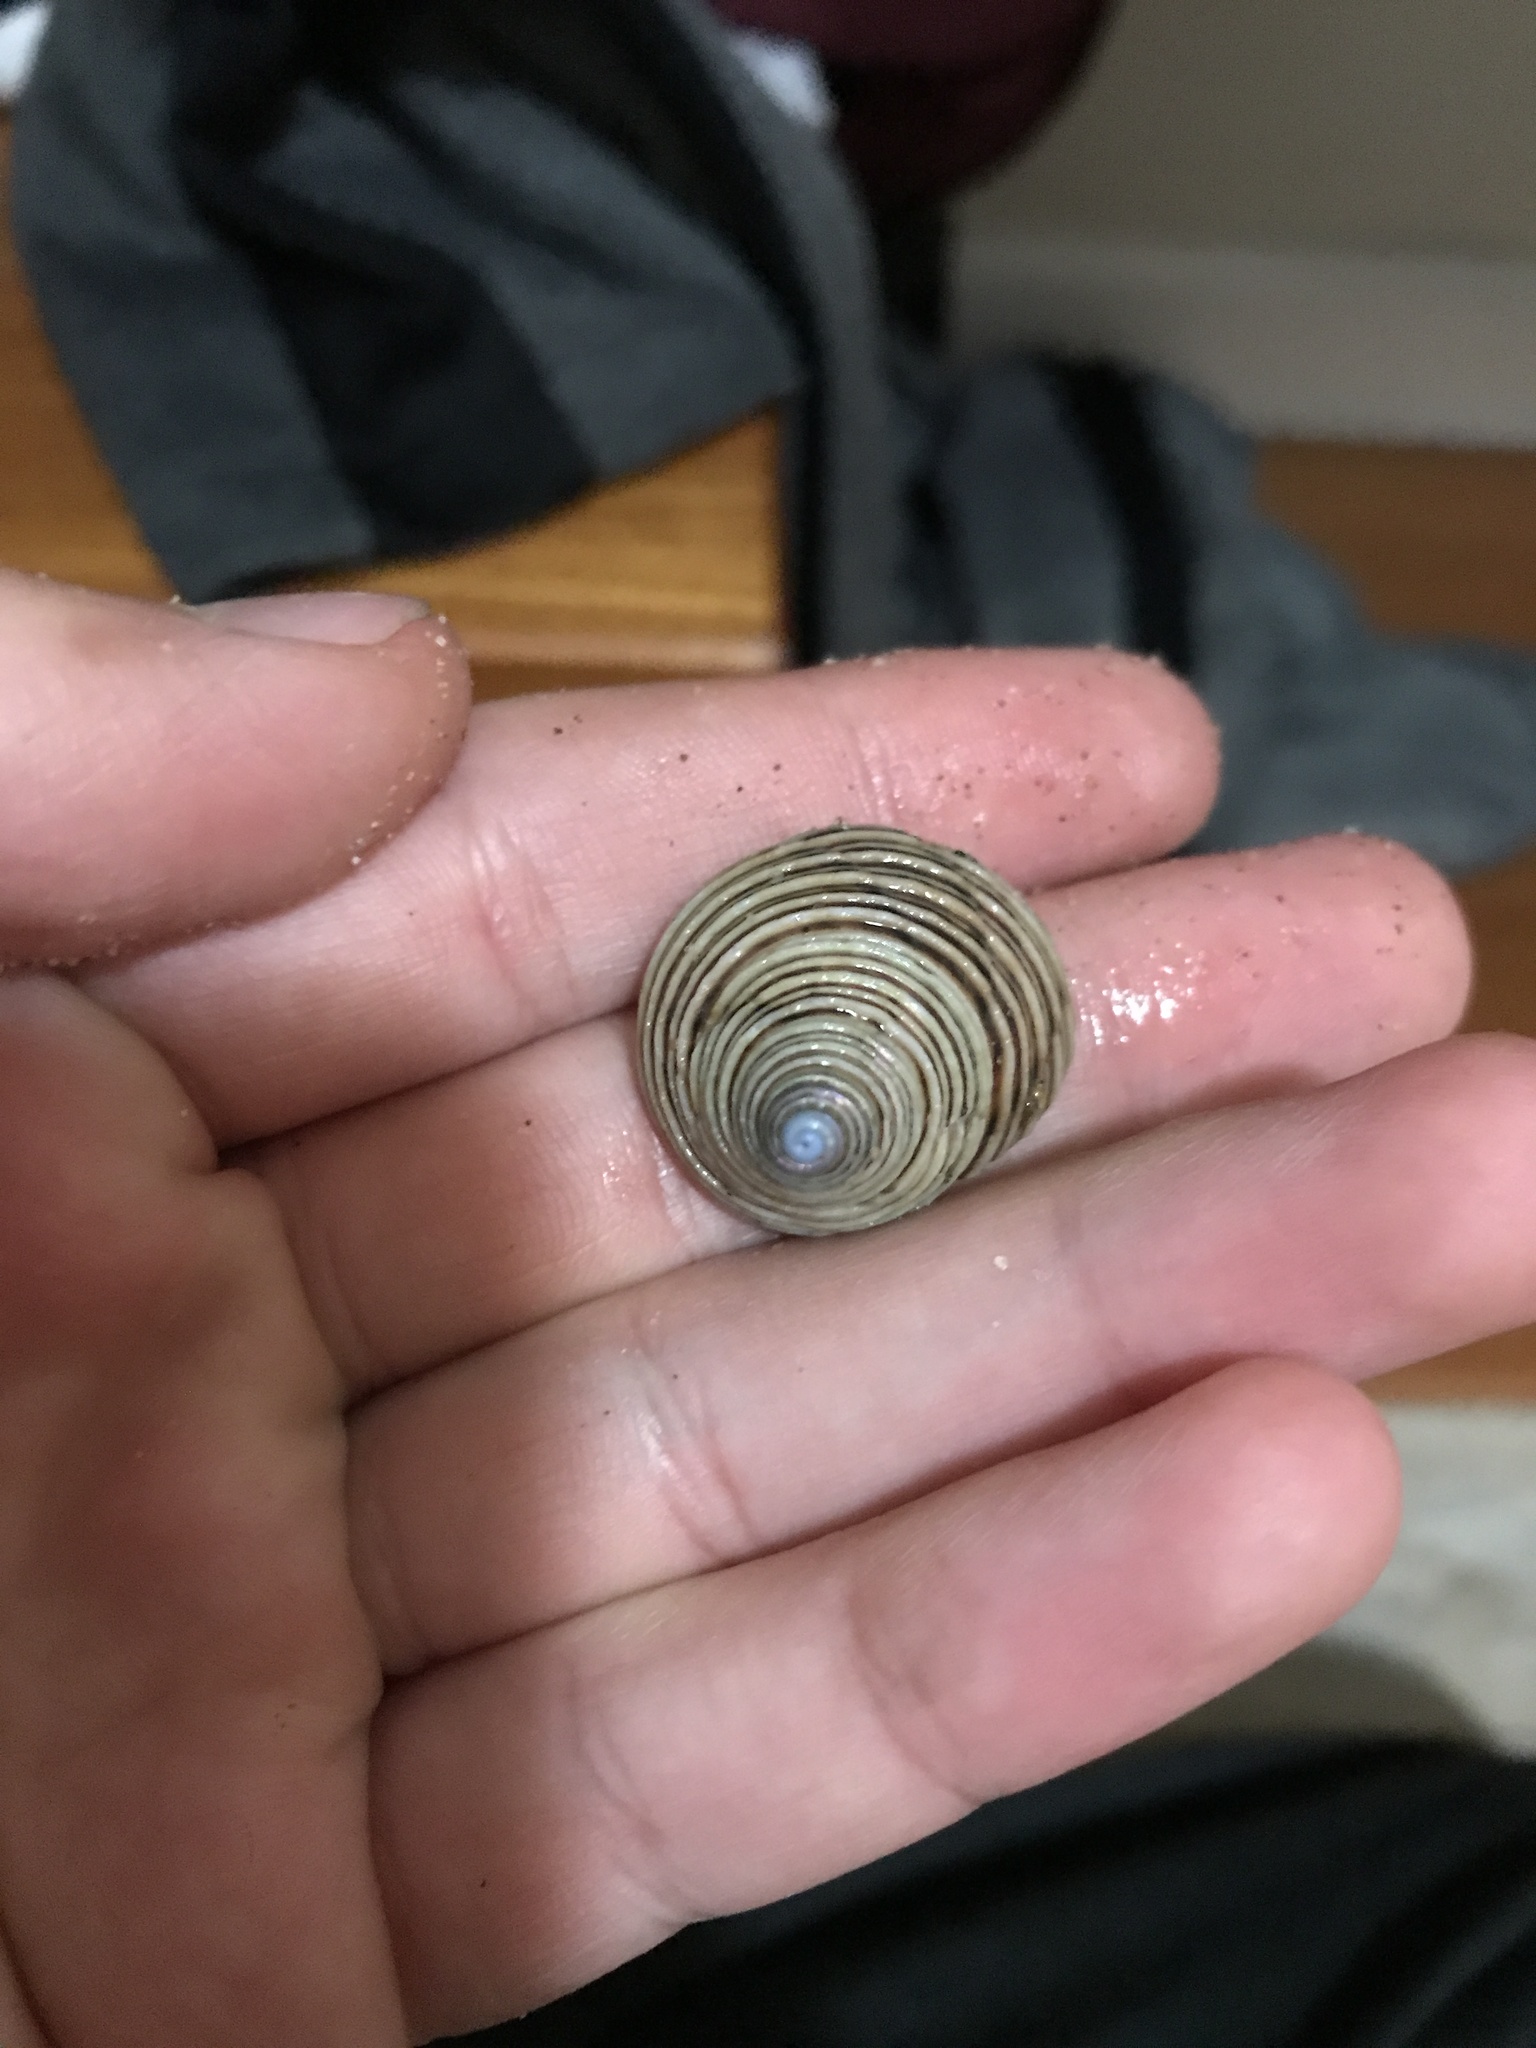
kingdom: Animalia
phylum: Mollusca
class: Gastropoda
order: Trochida
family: Calliostomatidae
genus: Calliostoma
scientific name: Calliostoma canaliculatum
